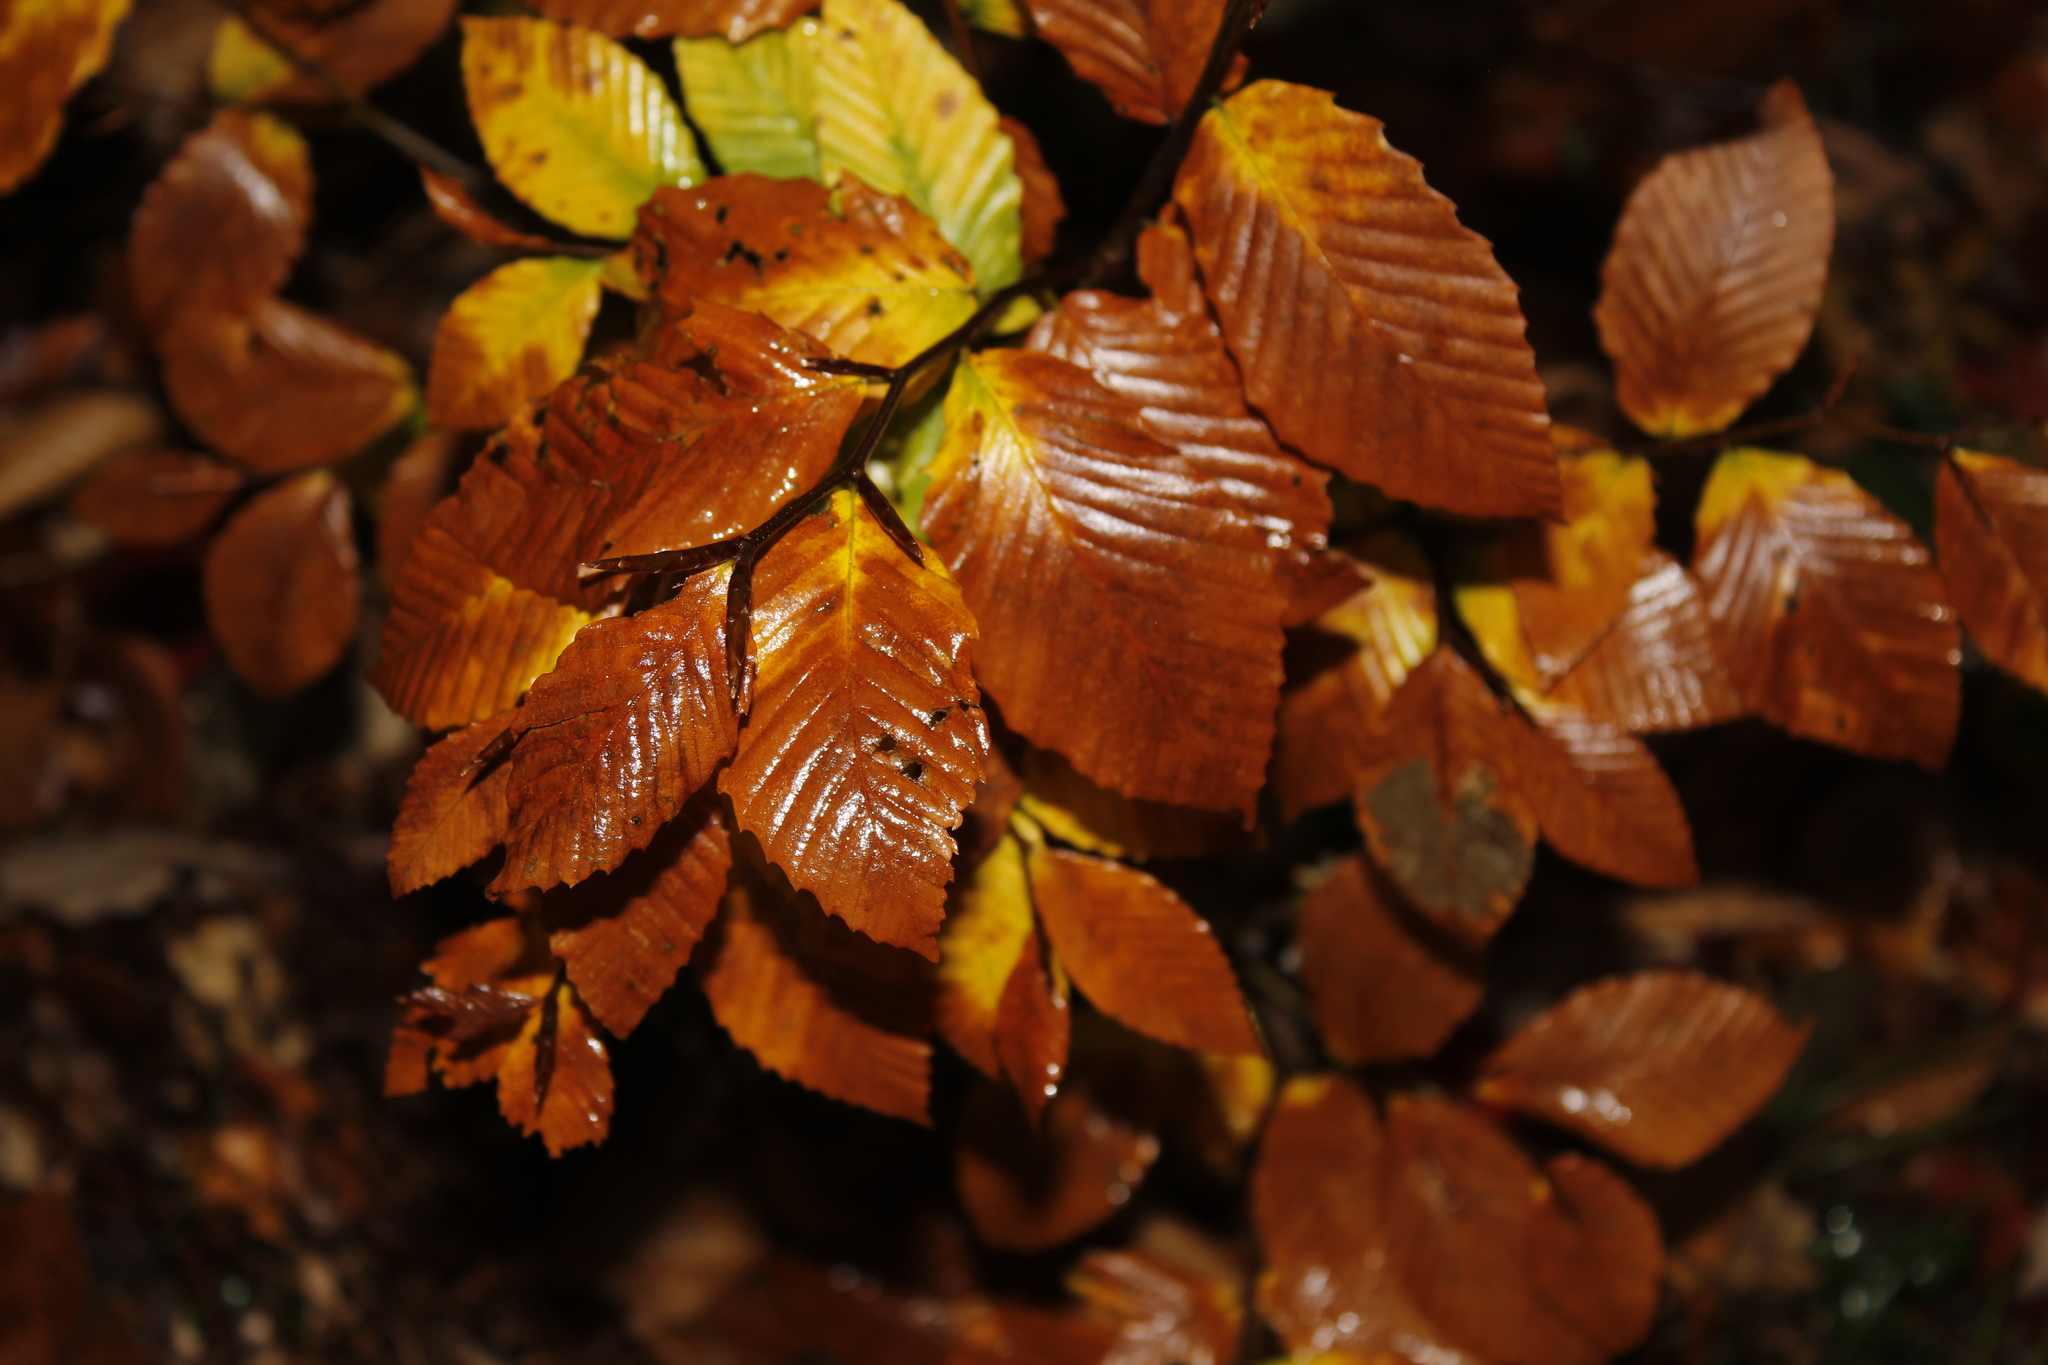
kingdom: Plantae
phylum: Tracheophyta
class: Magnoliopsida
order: Fagales
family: Fagaceae
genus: Fagus
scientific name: Fagus grandifolia
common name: American beech
